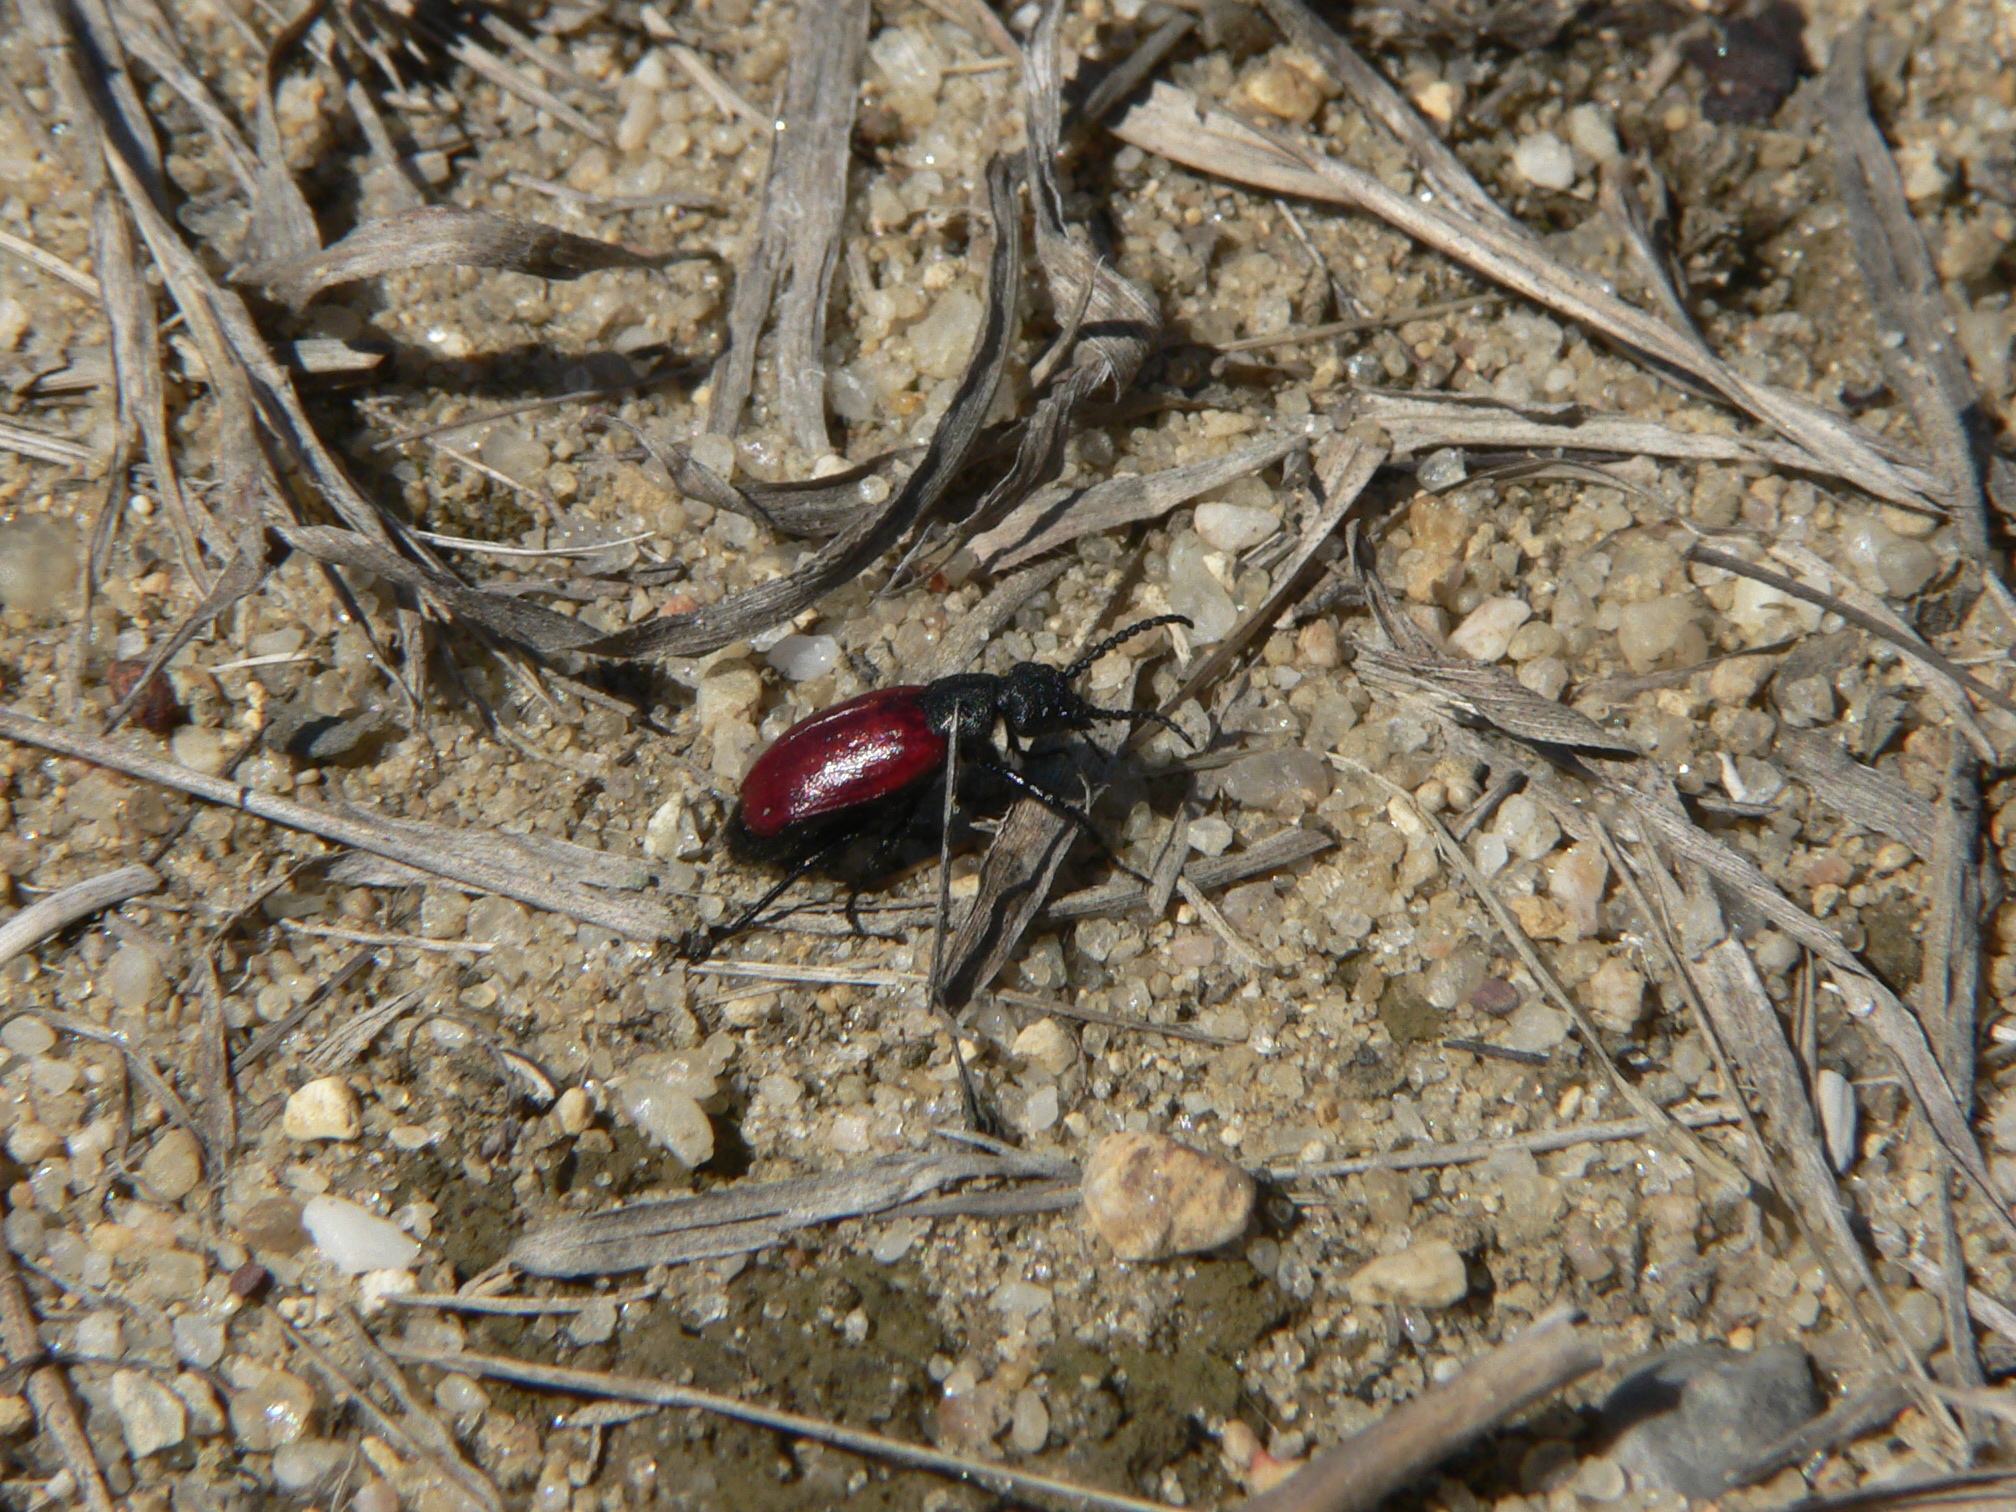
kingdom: Animalia
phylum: Arthropoda
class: Insecta
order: Coleoptera
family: Meloidae
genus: Tricrania
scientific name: Tricrania sanguinipennis
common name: Blood-winged blister beetle
